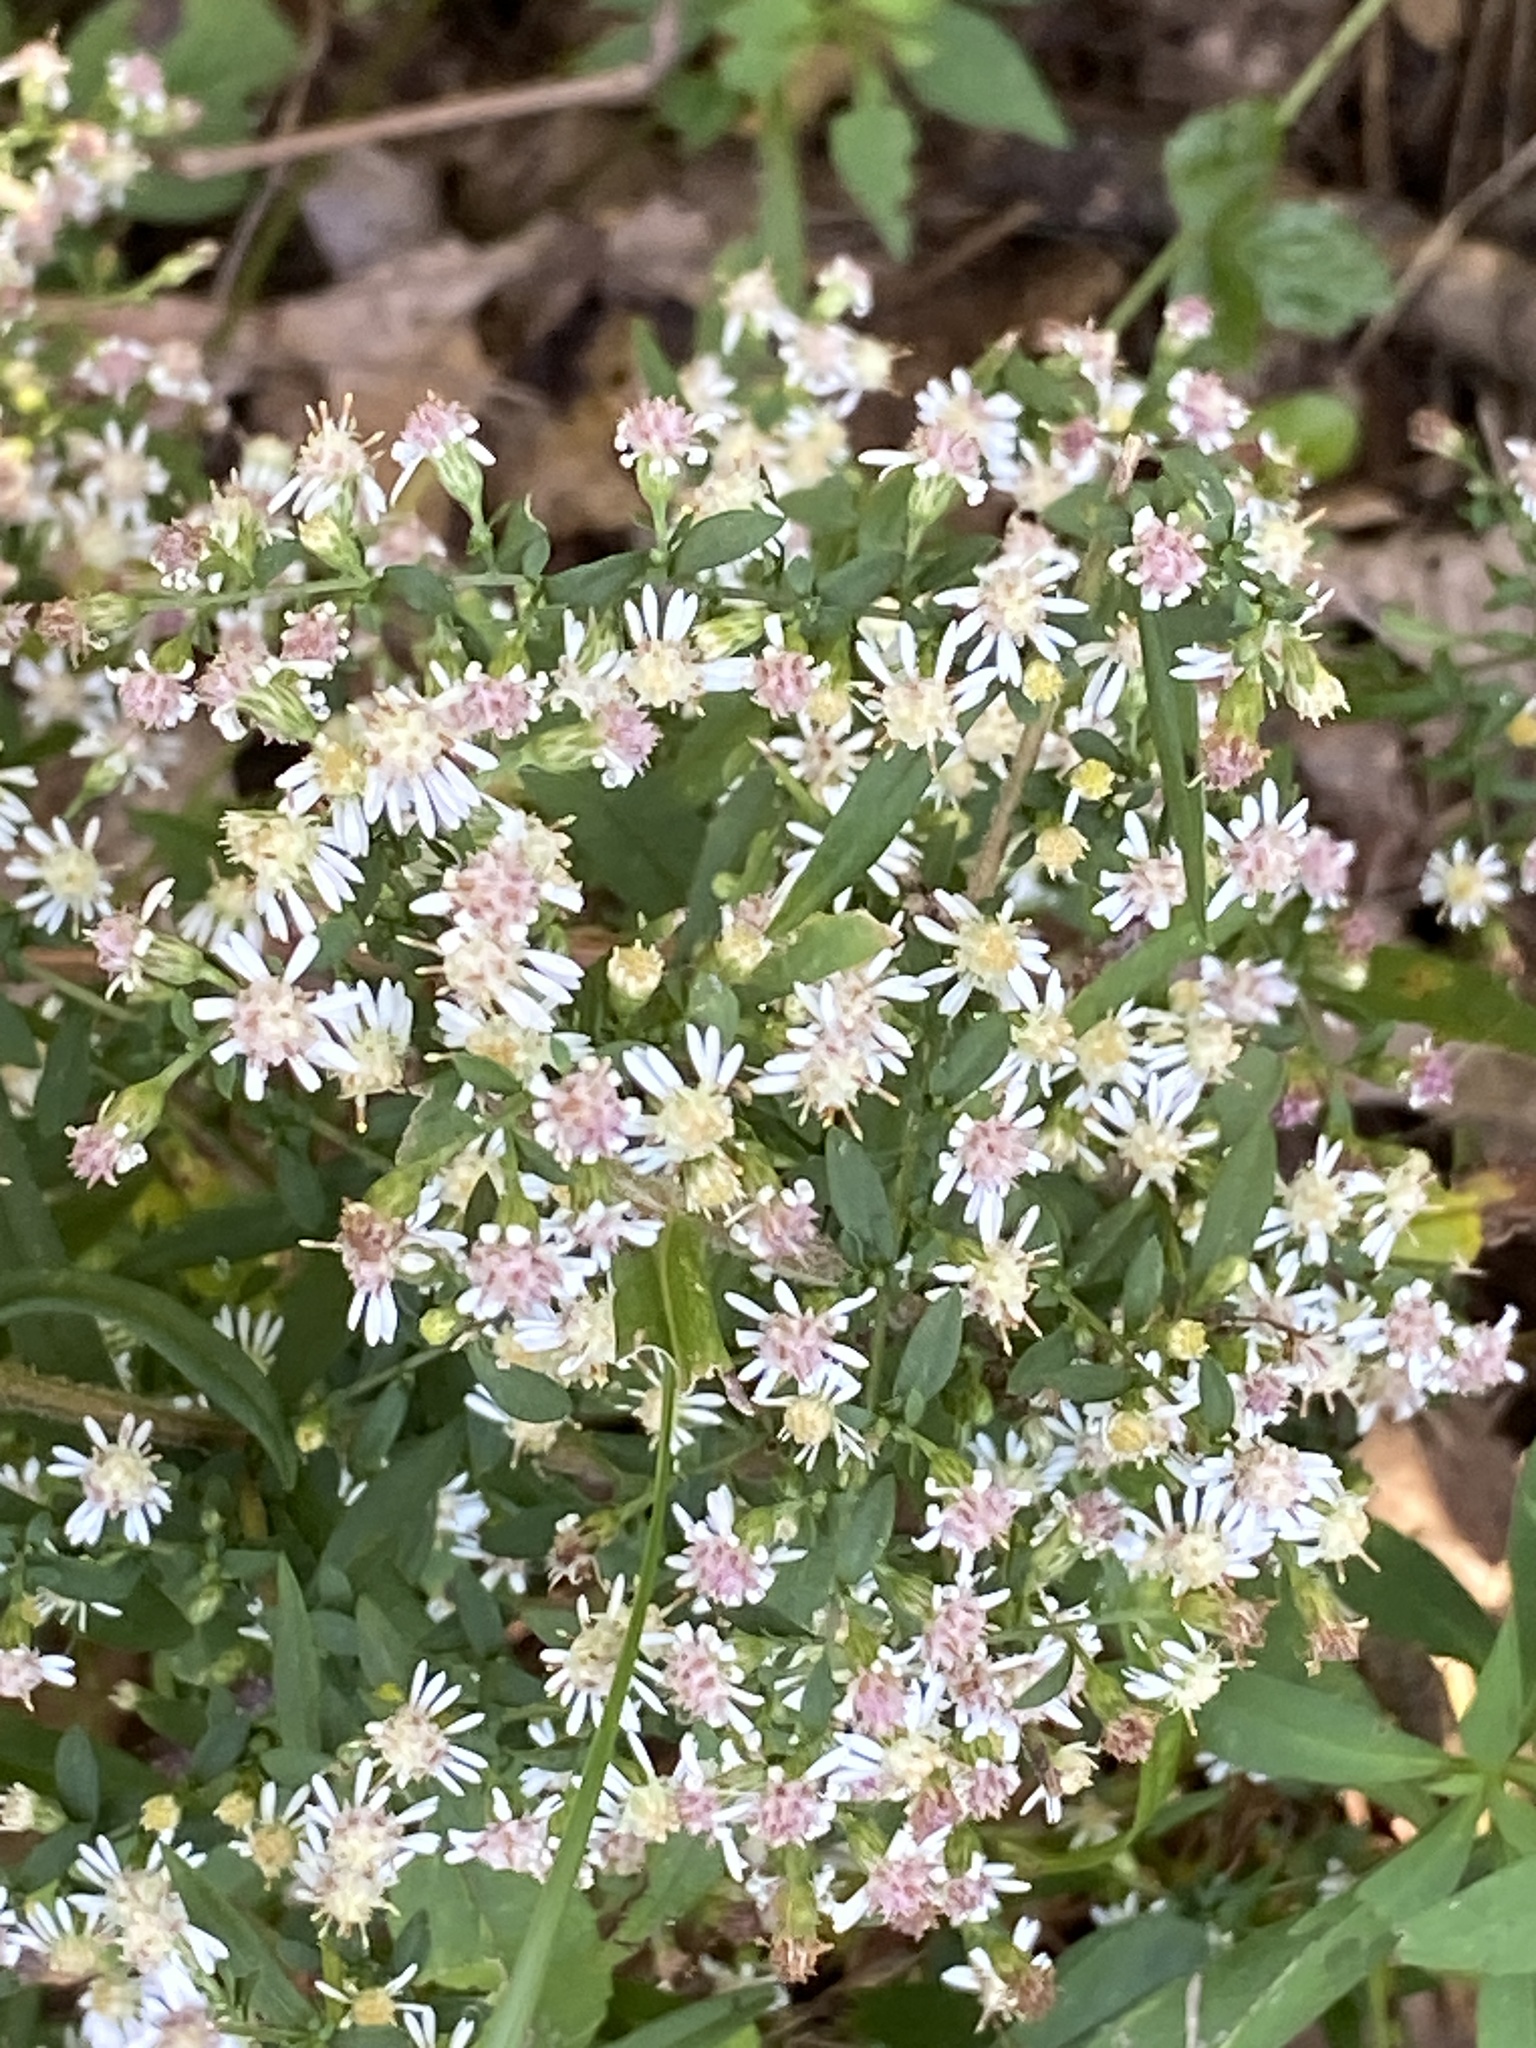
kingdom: Plantae
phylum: Tracheophyta
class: Magnoliopsida
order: Asterales
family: Asteraceae
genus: Symphyotrichum
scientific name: Symphyotrichum lateriflorum
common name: Calico aster
